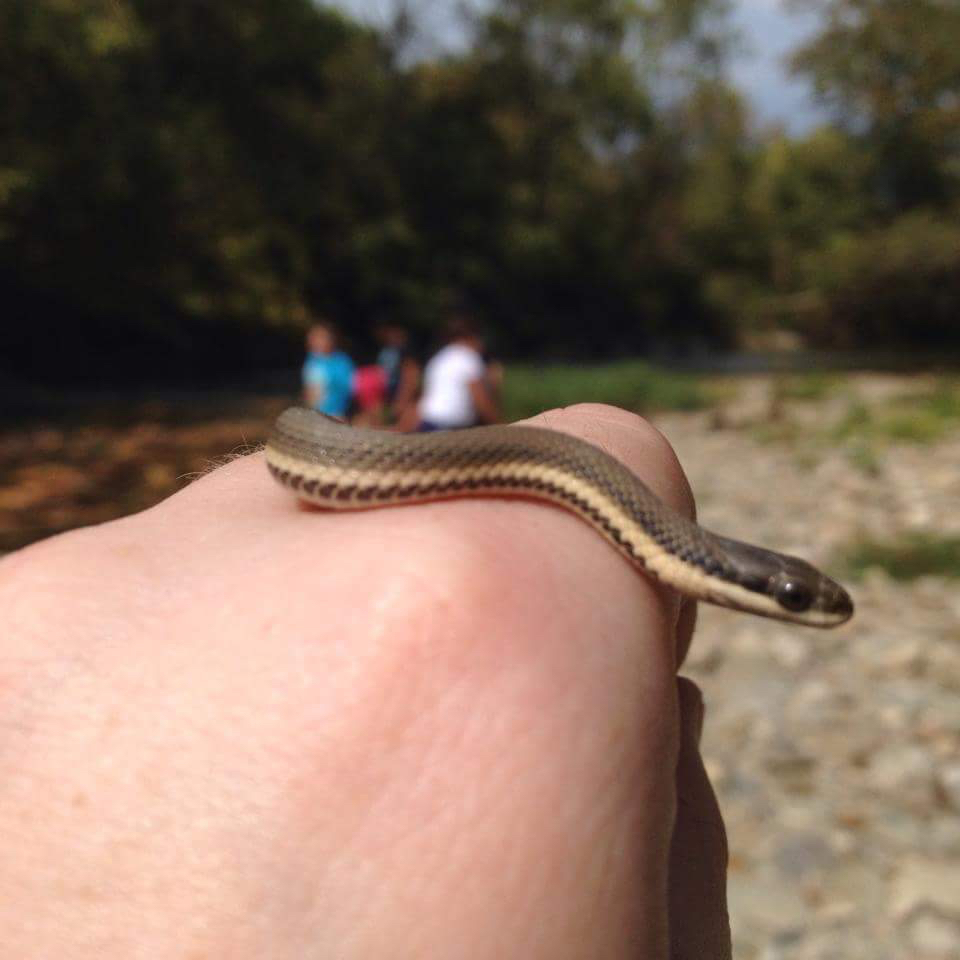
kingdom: Animalia
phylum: Chordata
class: Squamata
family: Colubridae
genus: Regina
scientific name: Regina septemvittata
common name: Queen snake
